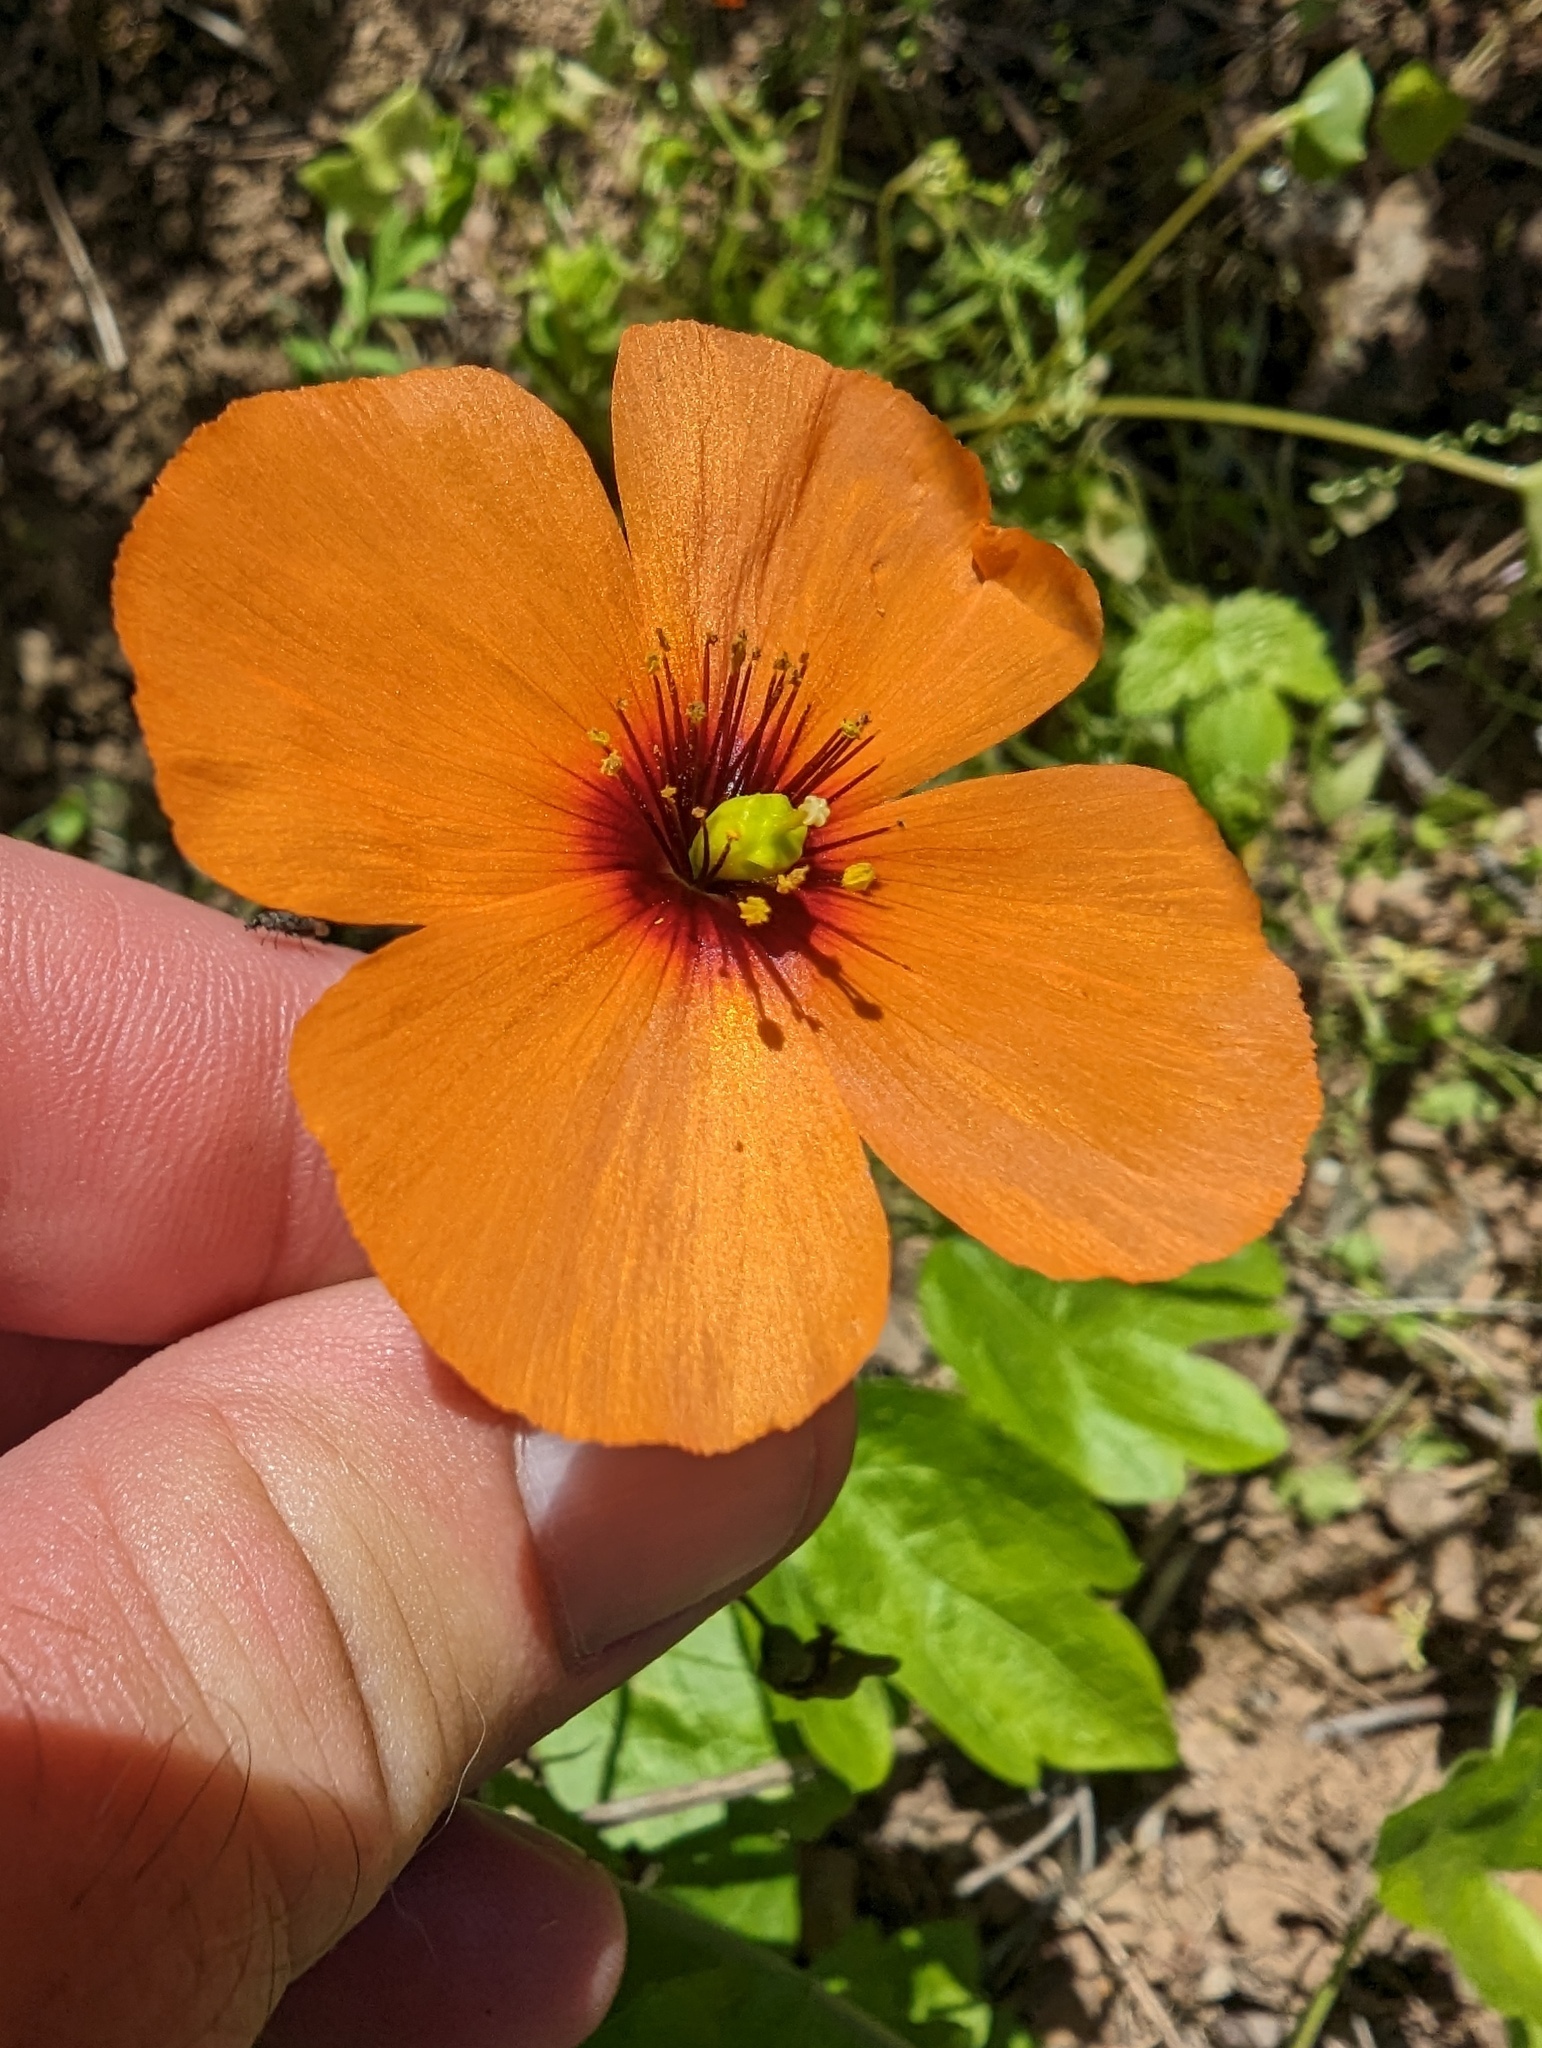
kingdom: Plantae
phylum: Tracheophyta
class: Magnoliopsida
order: Ranunculales
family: Papaveraceae
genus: Stylomecon
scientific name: Stylomecon heterophylla
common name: Flaming-poppy
